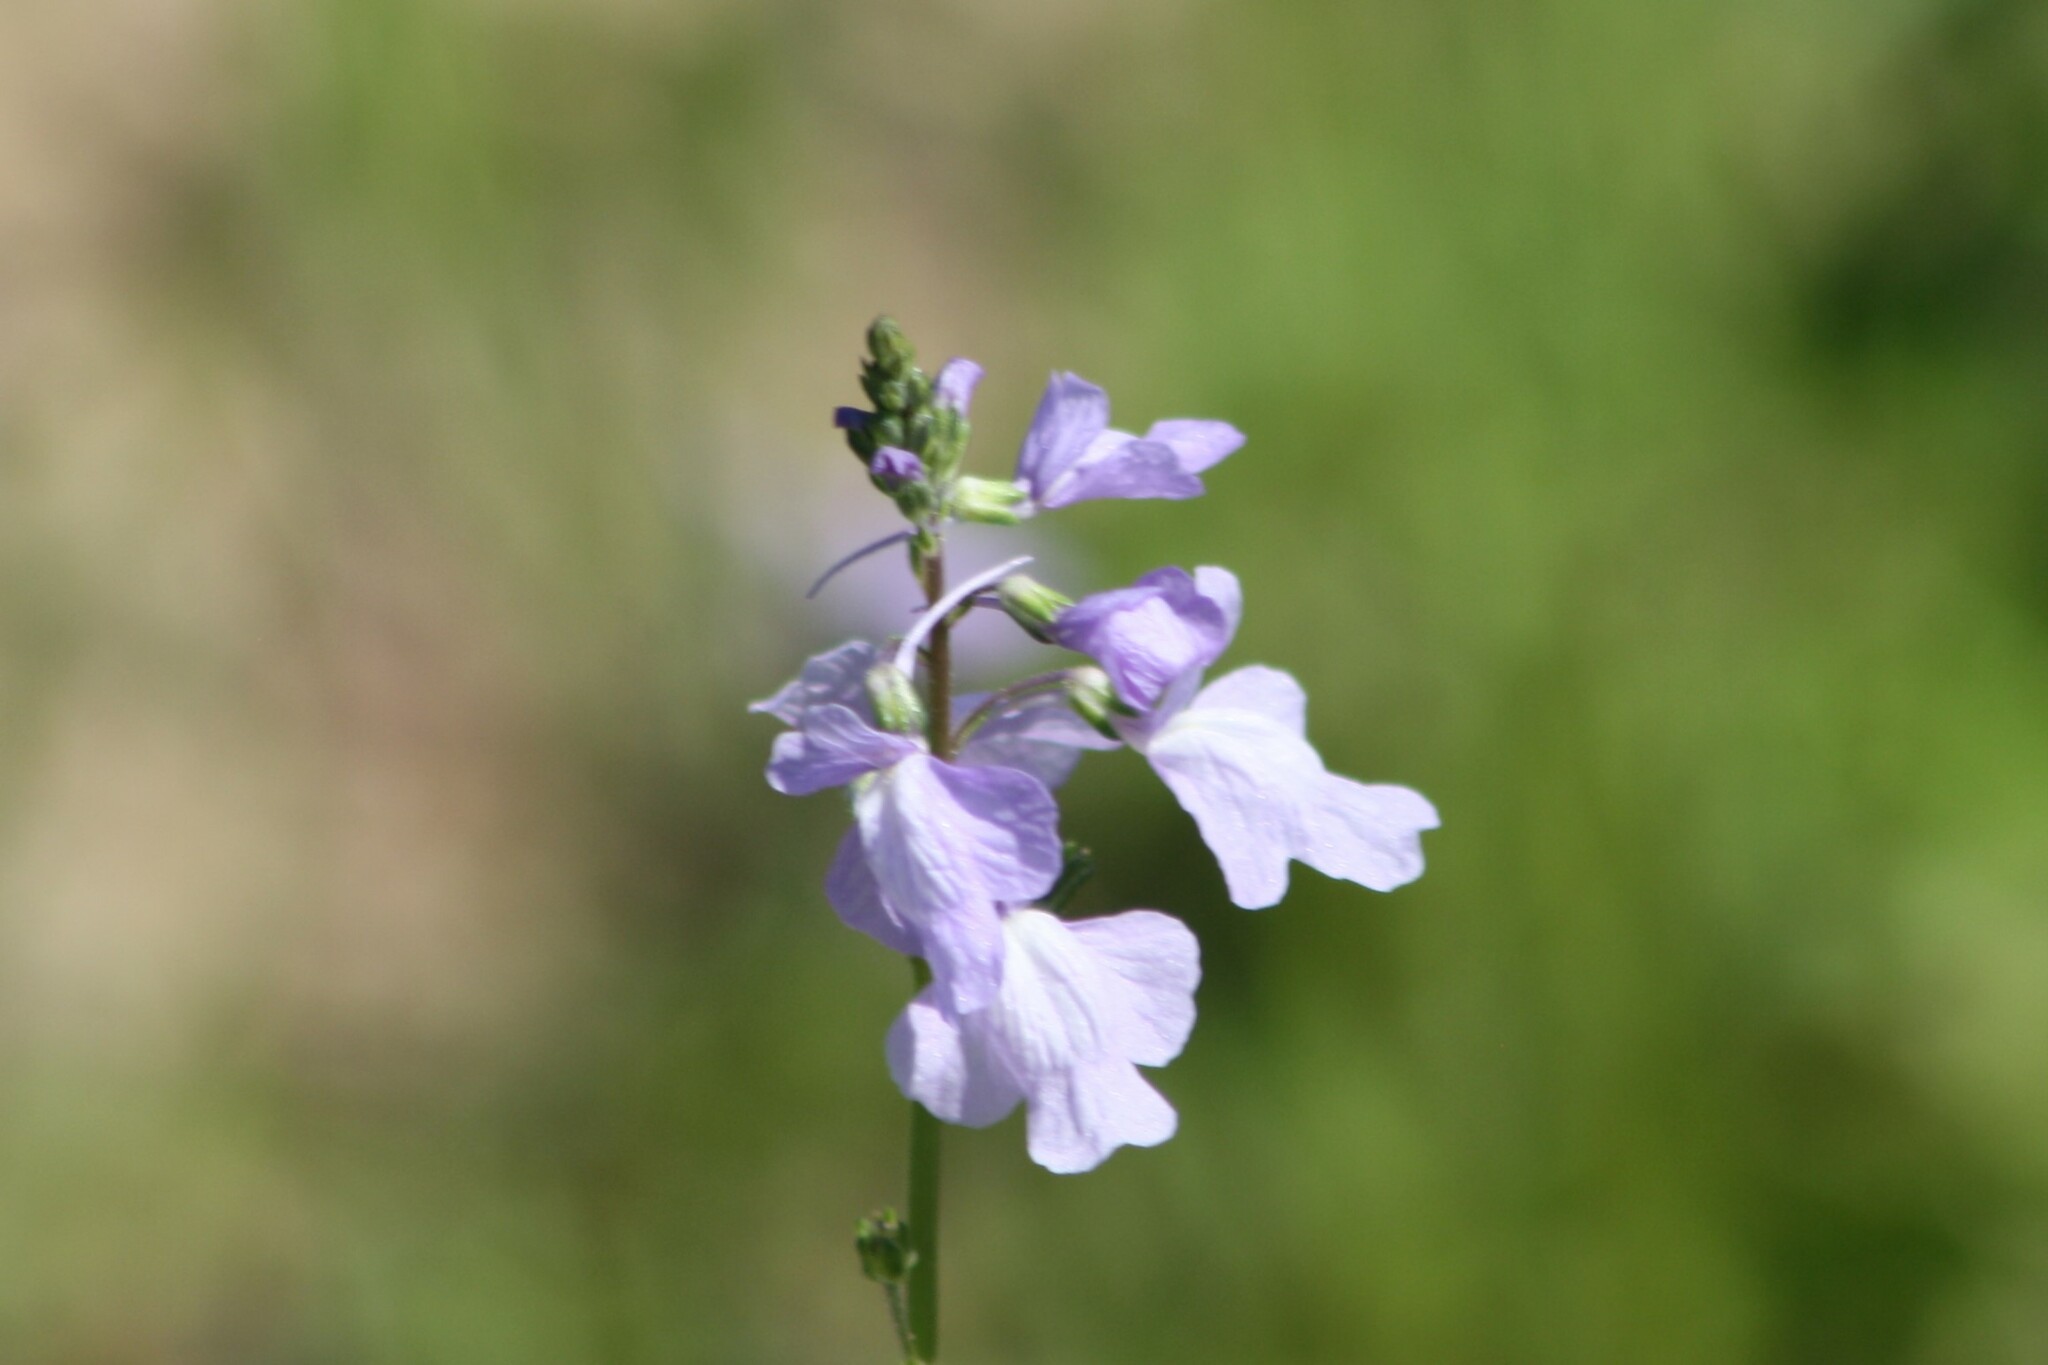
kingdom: Plantae
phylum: Tracheophyta
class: Magnoliopsida
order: Lamiales
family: Plantaginaceae
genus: Nuttallanthus
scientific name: Nuttallanthus texanus
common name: Texas toadflax
